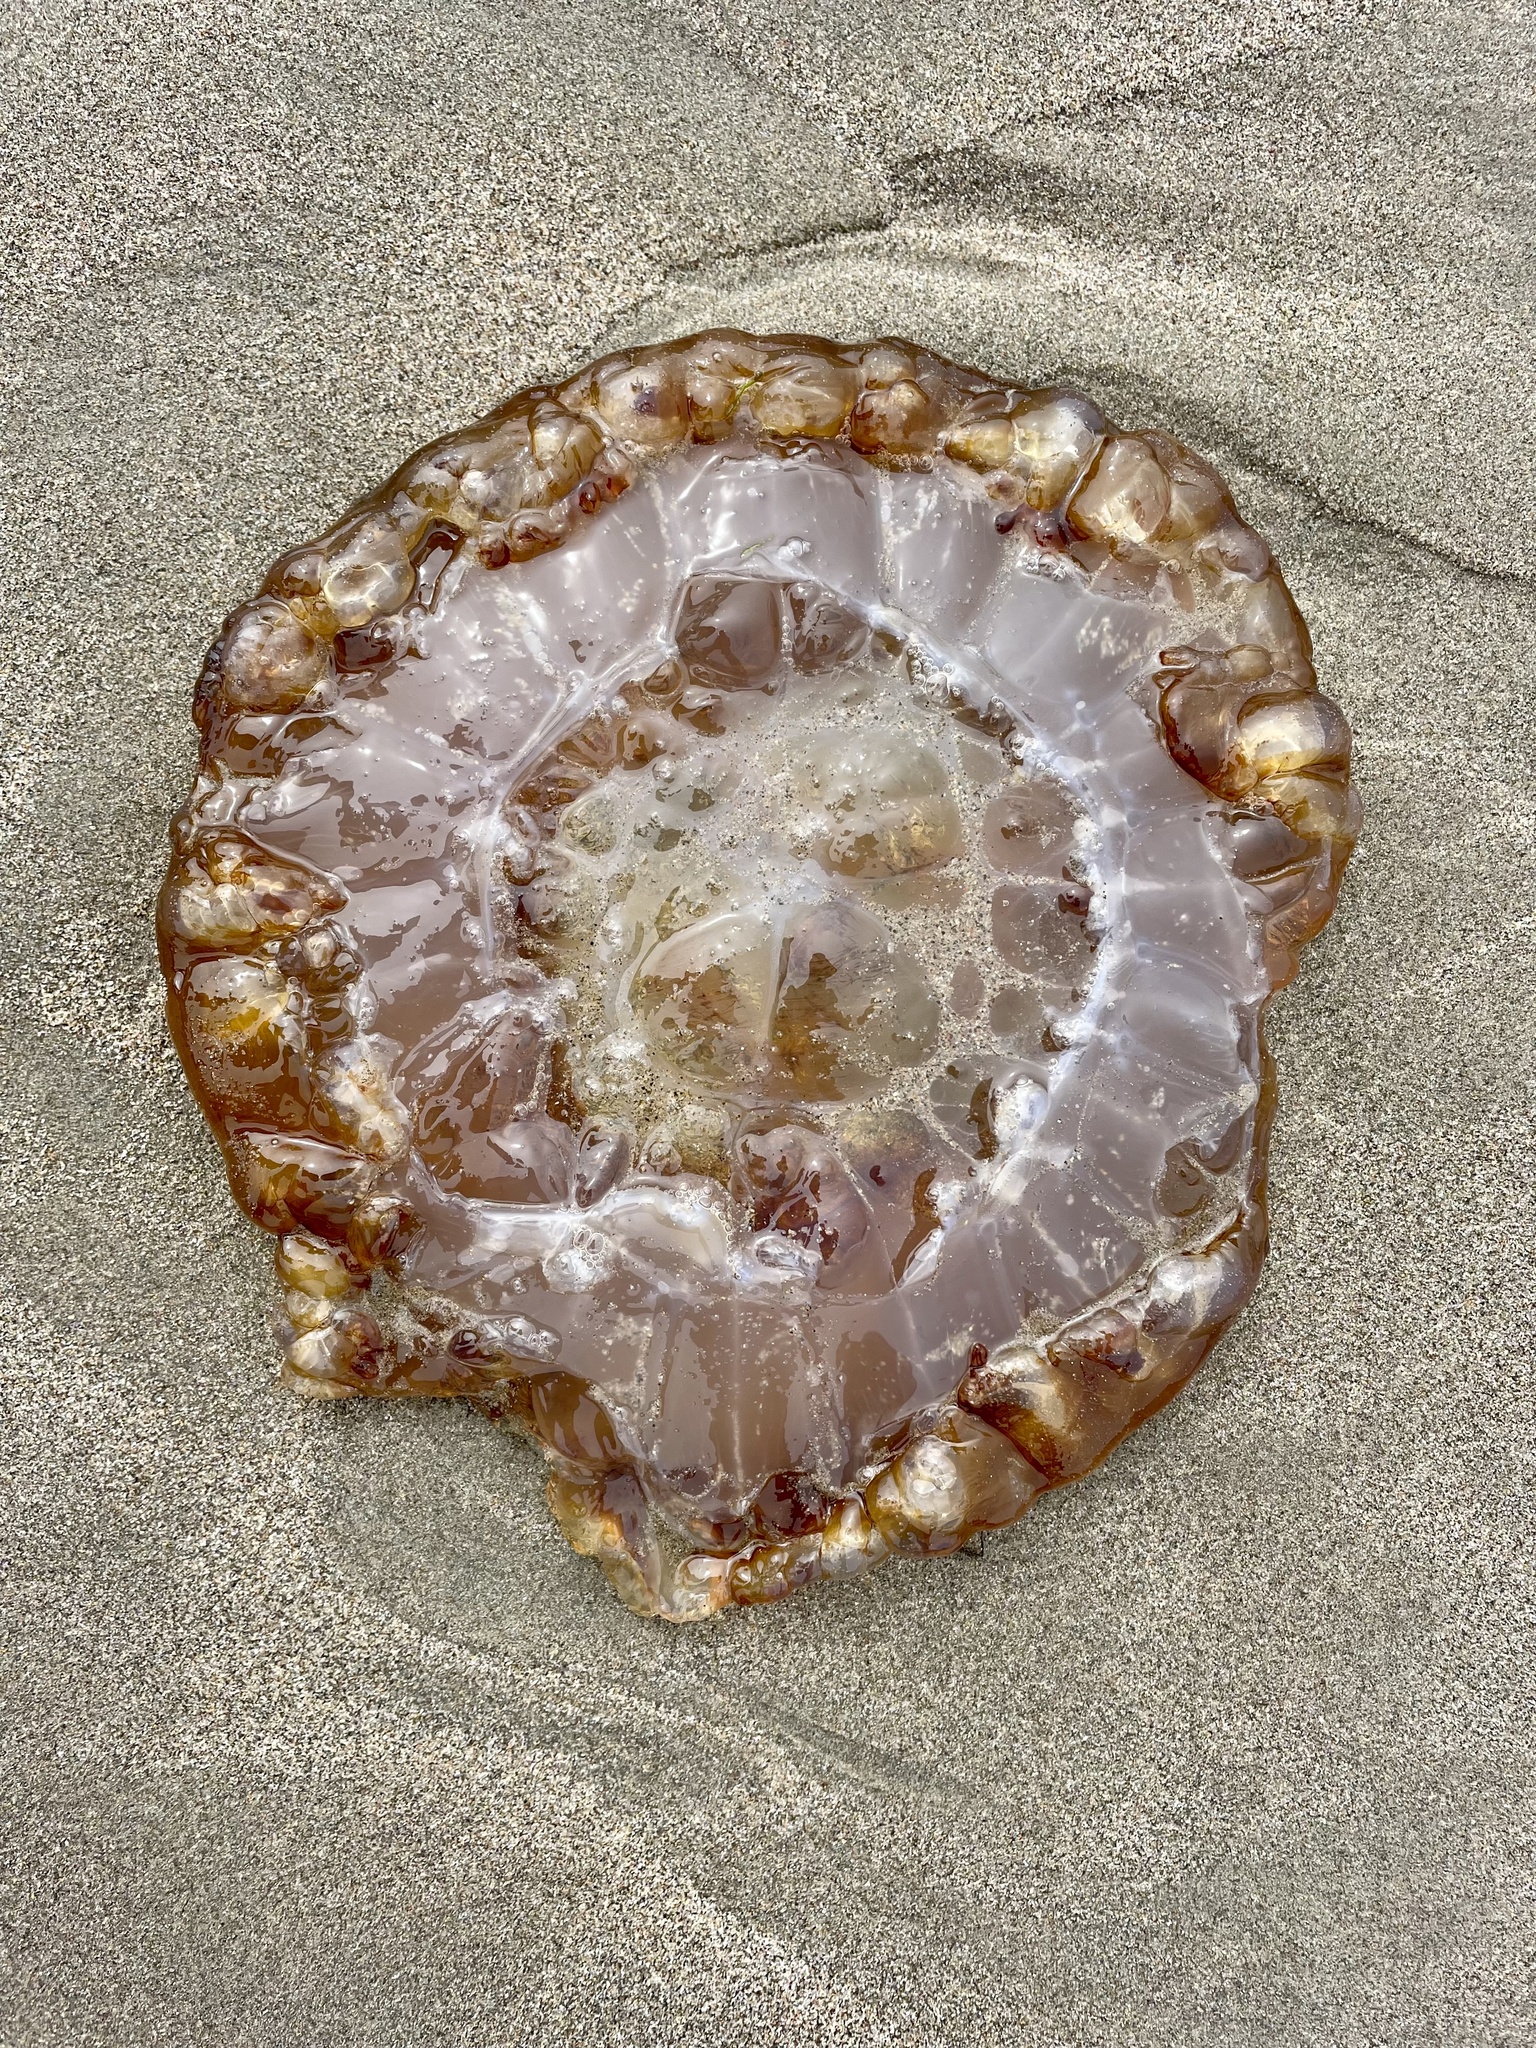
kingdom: Animalia
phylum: Cnidaria
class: Scyphozoa
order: Semaeostomeae
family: Pelagiidae
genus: Chrysaora
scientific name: Chrysaora fuscescens
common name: Sea nettle
